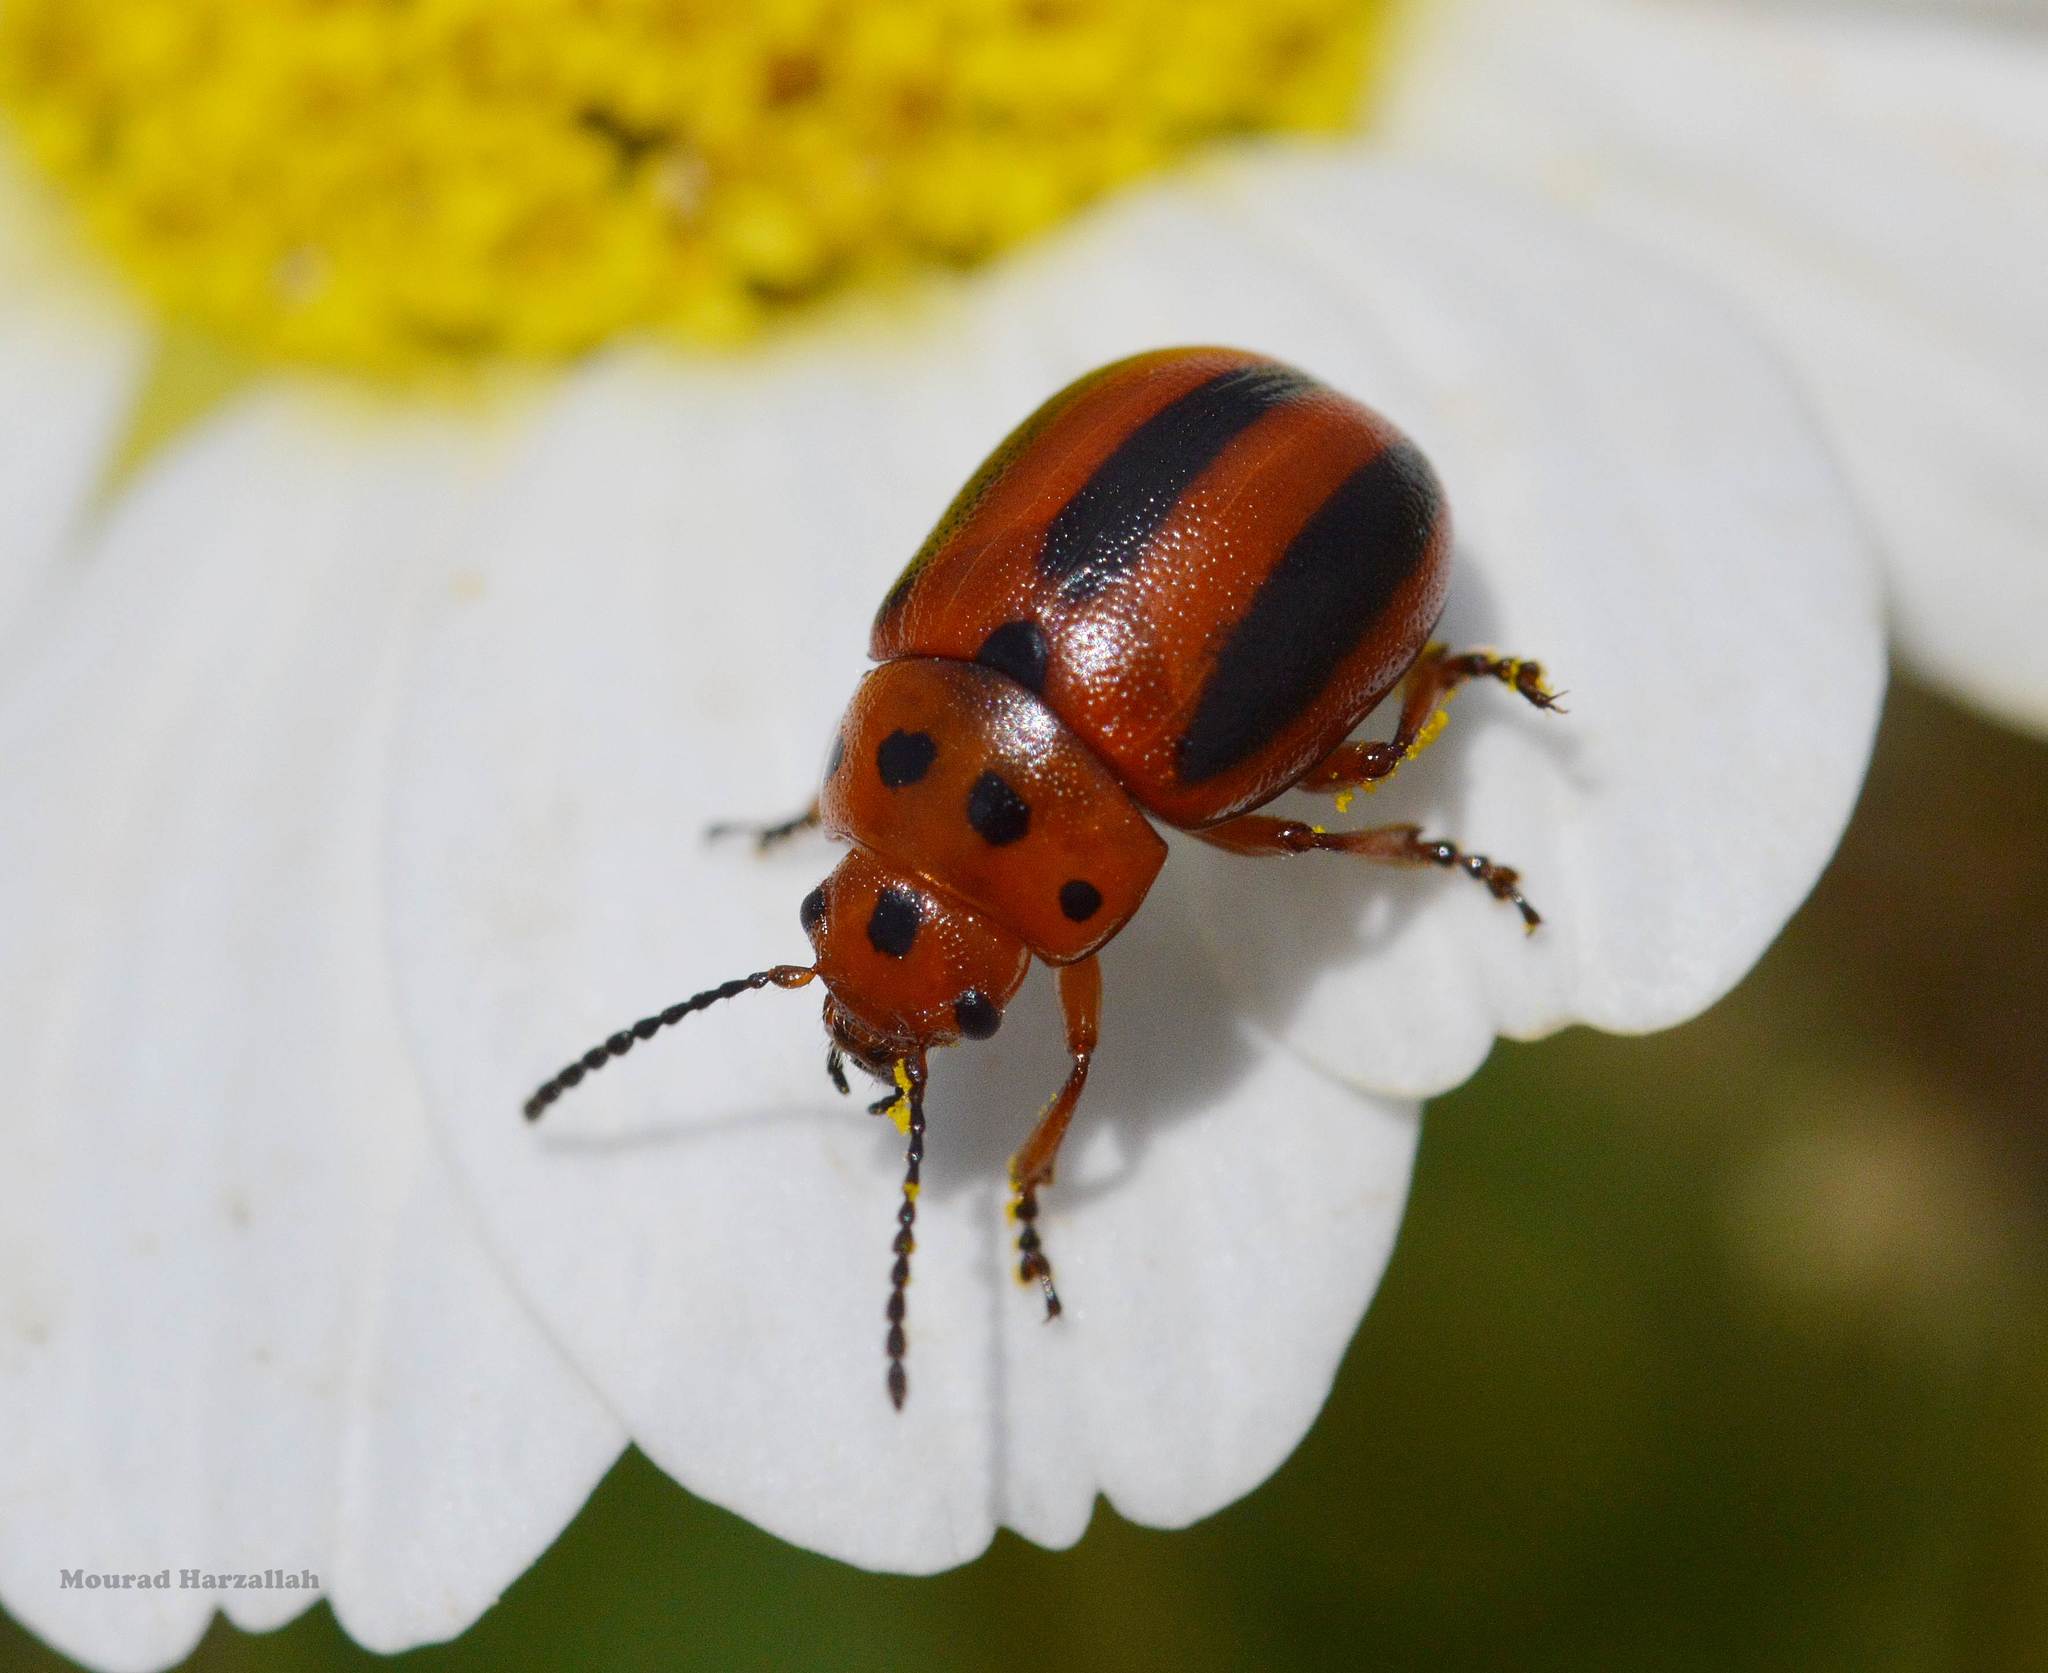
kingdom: Animalia
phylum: Arthropoda
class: Insecta
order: Coleoptera
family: Chrysomelidae
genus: Entomoscelis
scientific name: Entomoscelis rumicis
